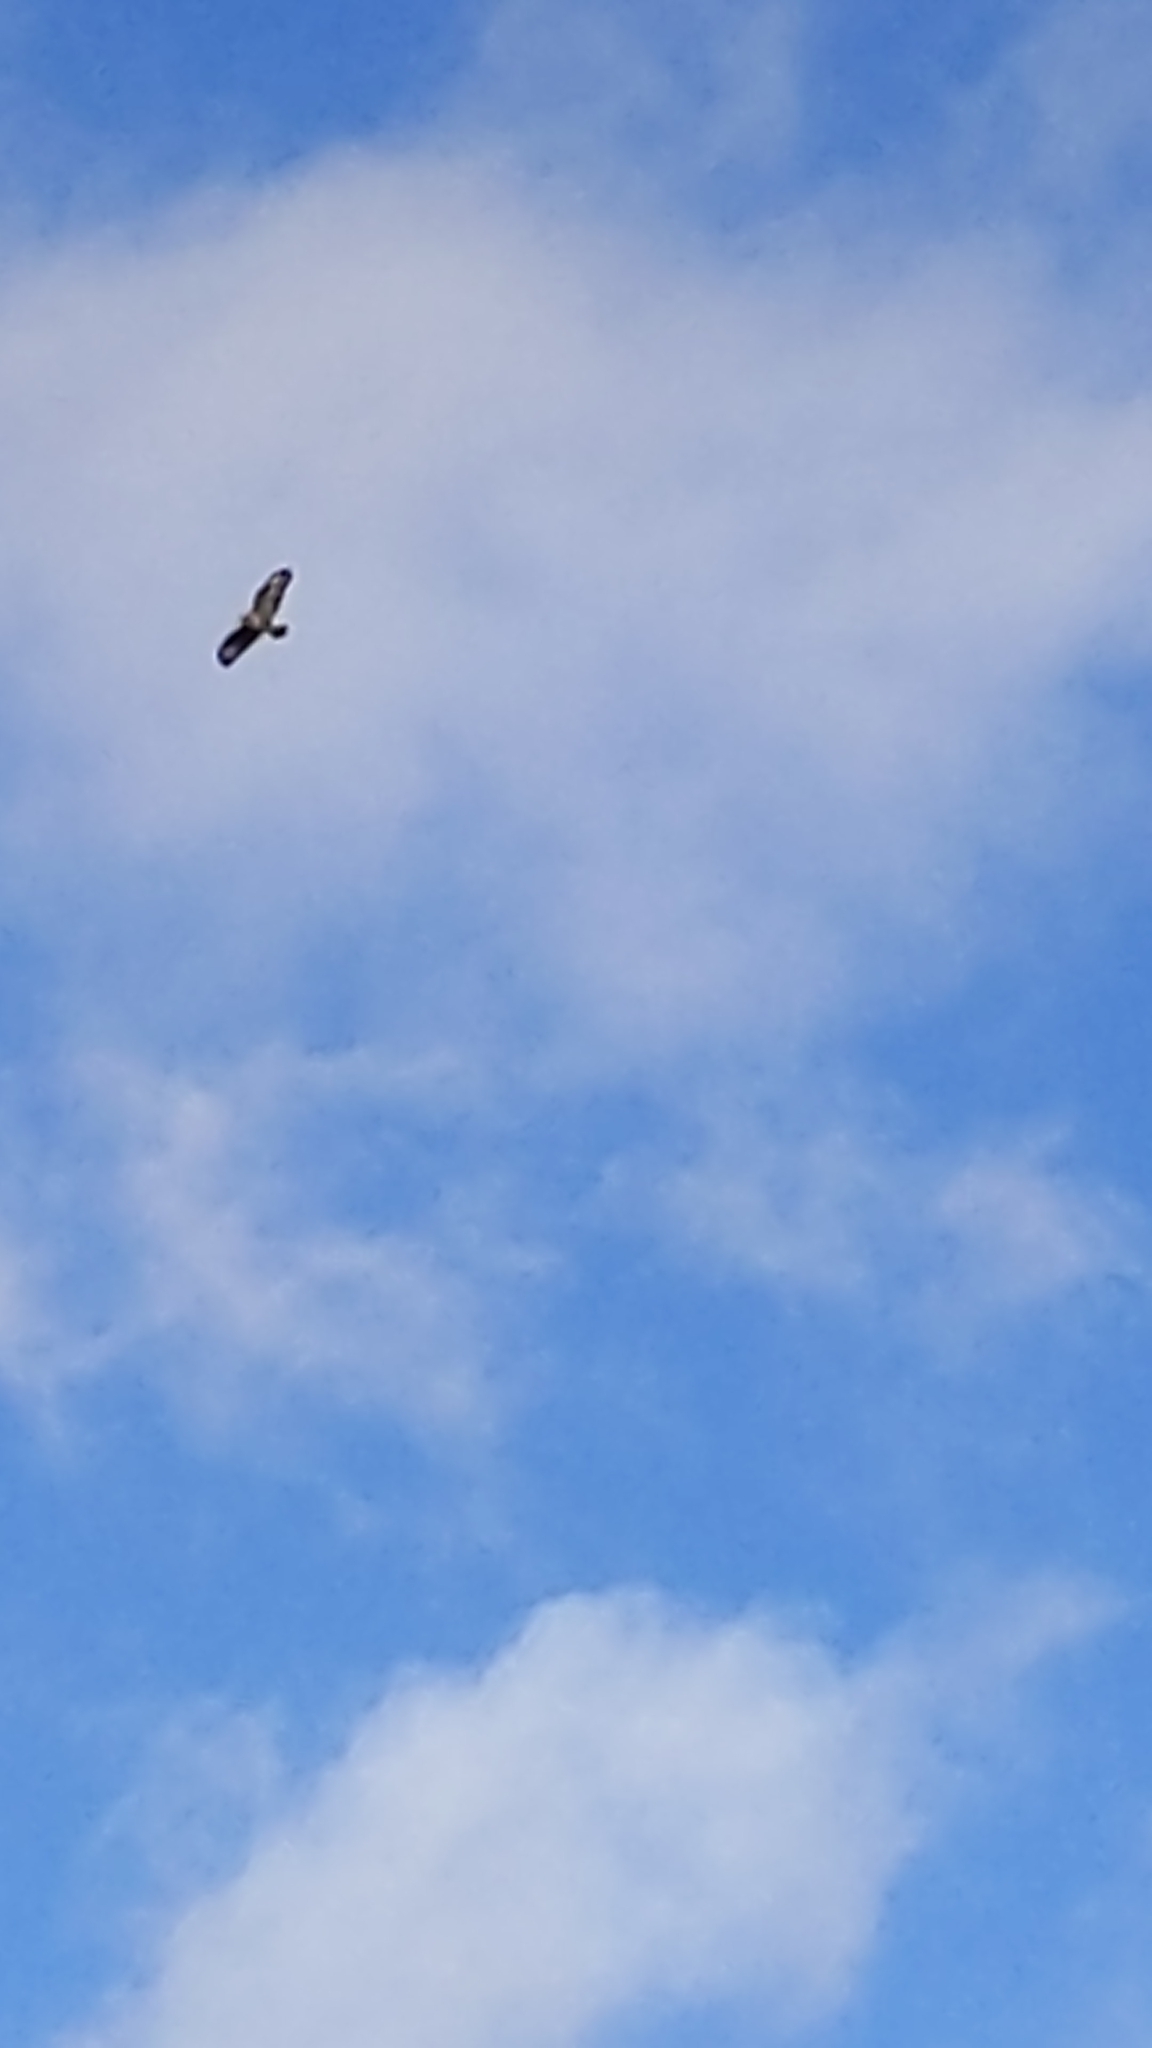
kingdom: Animalia
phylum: Chordata
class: Aves
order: Accipitriformes
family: Accipitridae
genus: Buteo
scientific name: Buteo buteo
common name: Common buzzard
